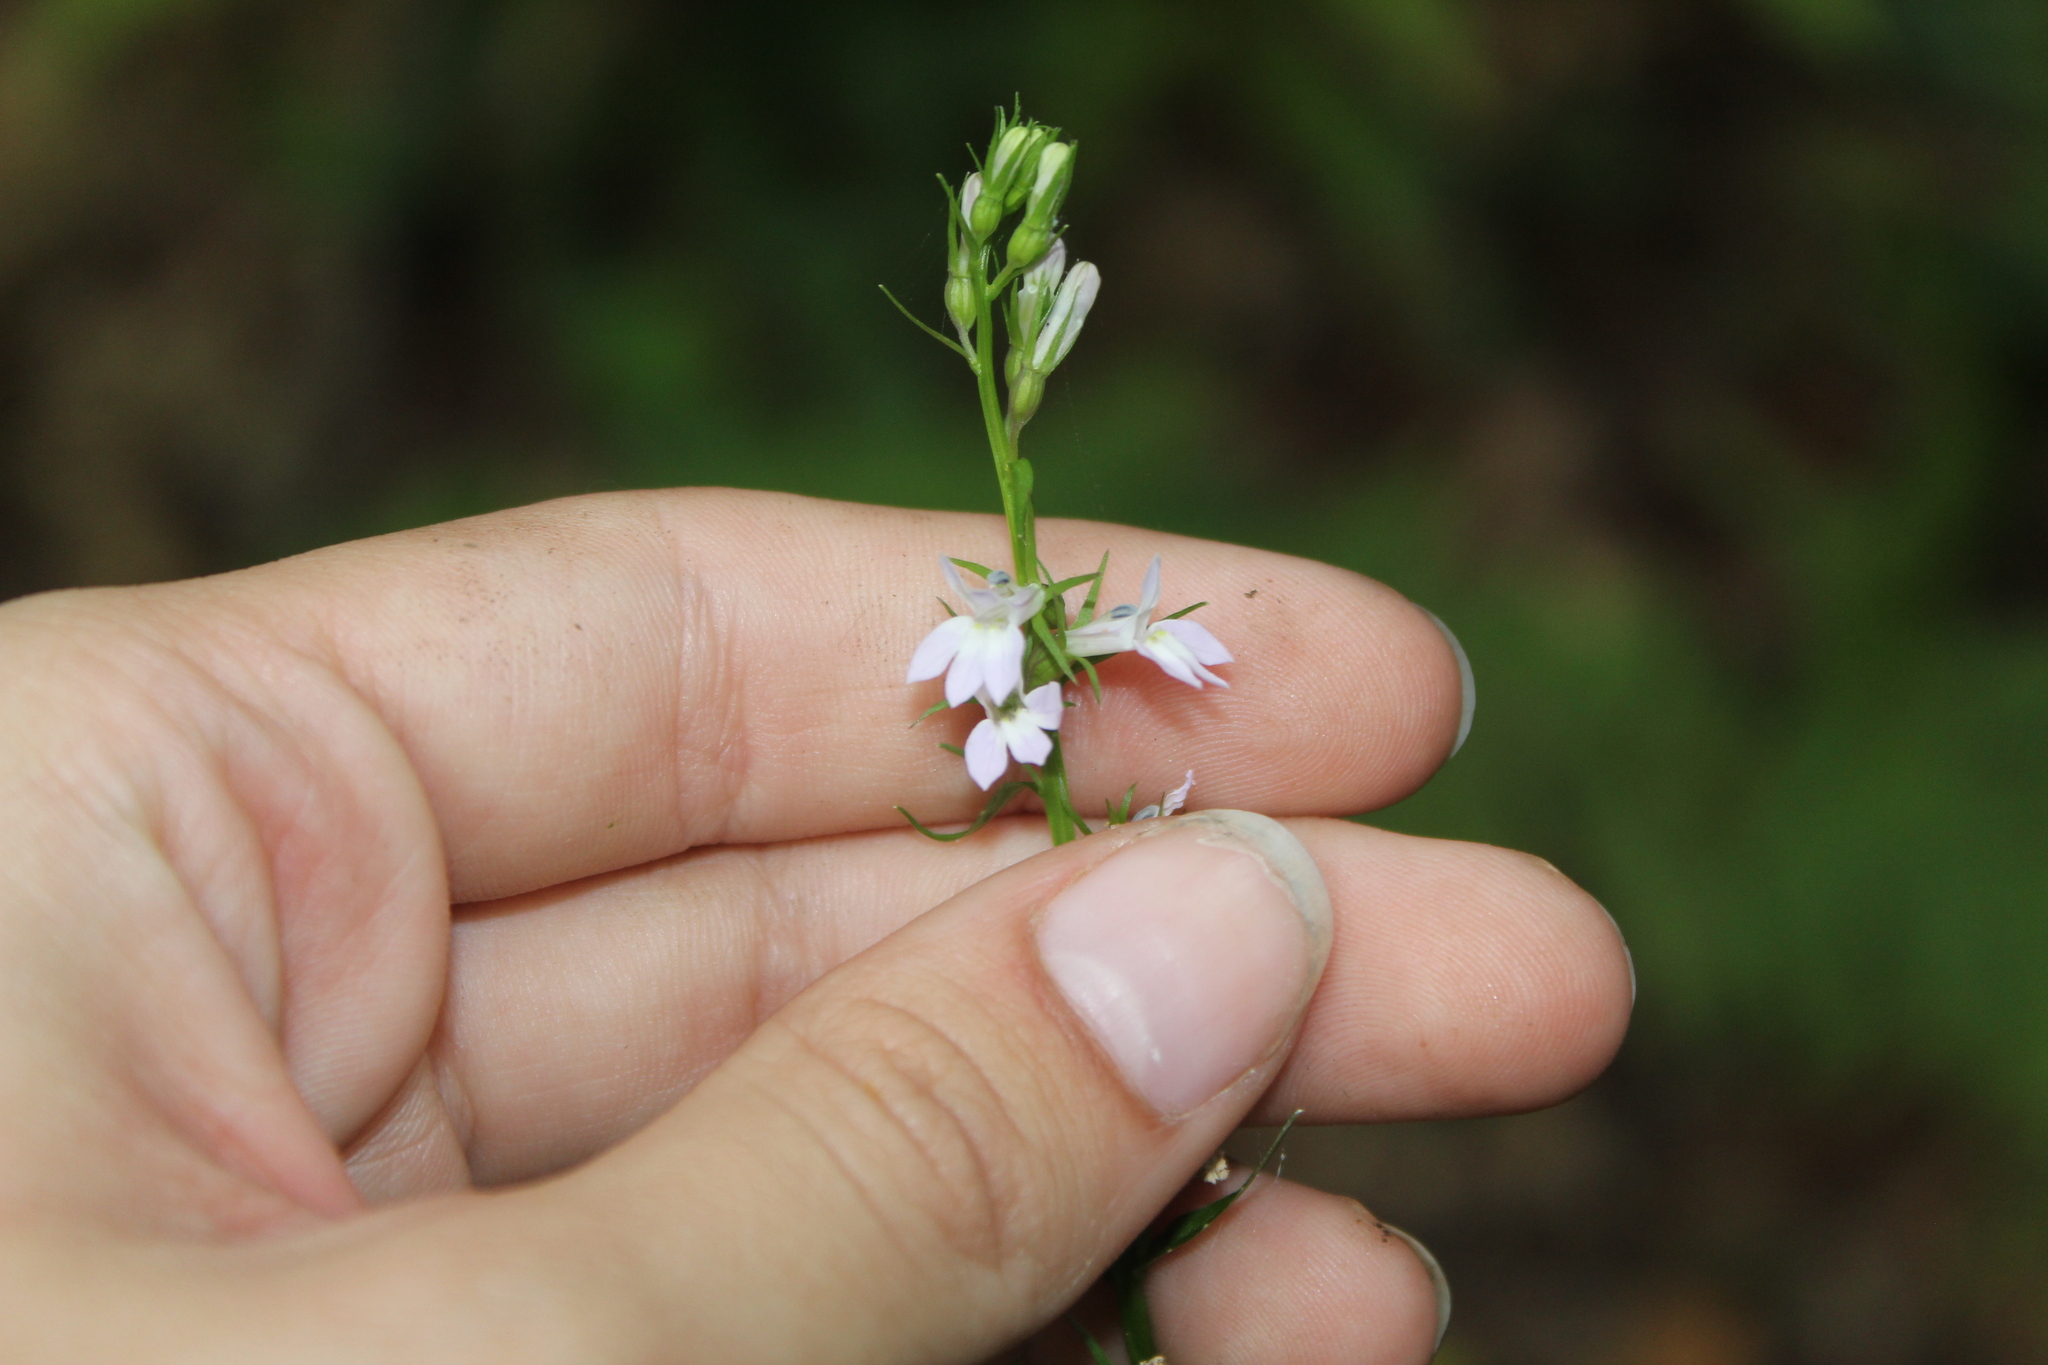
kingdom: Plantae
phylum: Tracheophyta
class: Magnoliopsida
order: Asterales
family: Campanulaceae
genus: Lobelia
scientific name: Lobelia spicata
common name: Pale-spike lobelia
